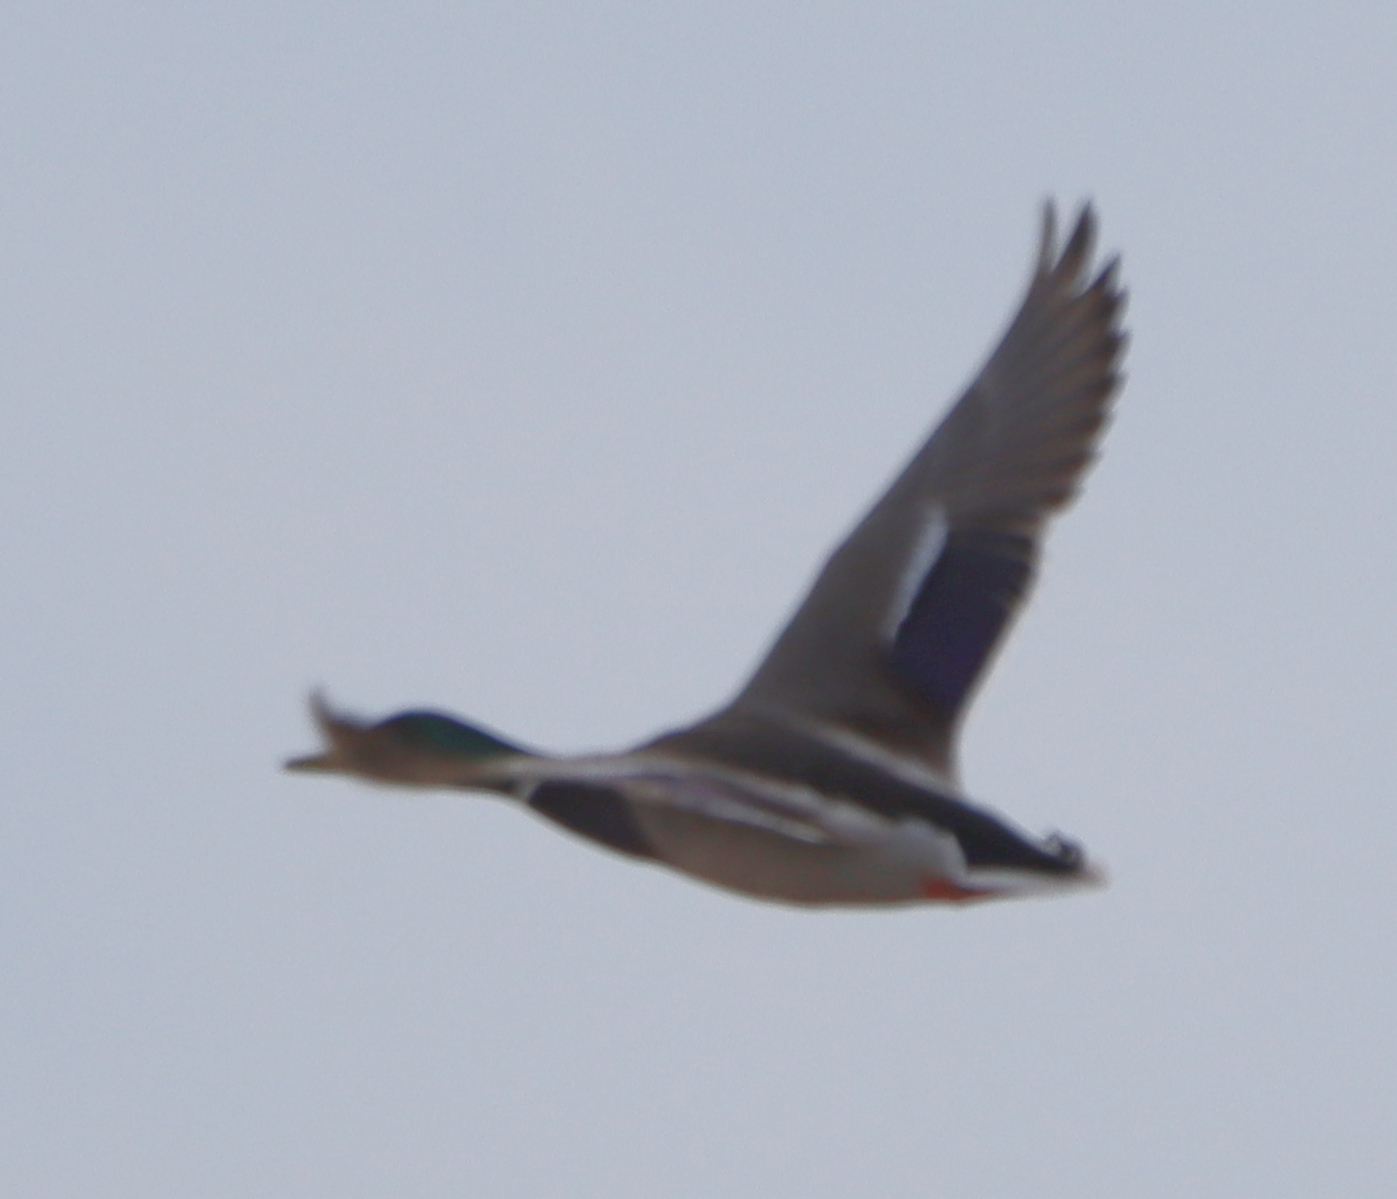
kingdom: Animalia
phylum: Chordata
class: Aves
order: Anseriformes
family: Anatidae
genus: Anas
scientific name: Anas platyrhynchos
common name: Mallard
